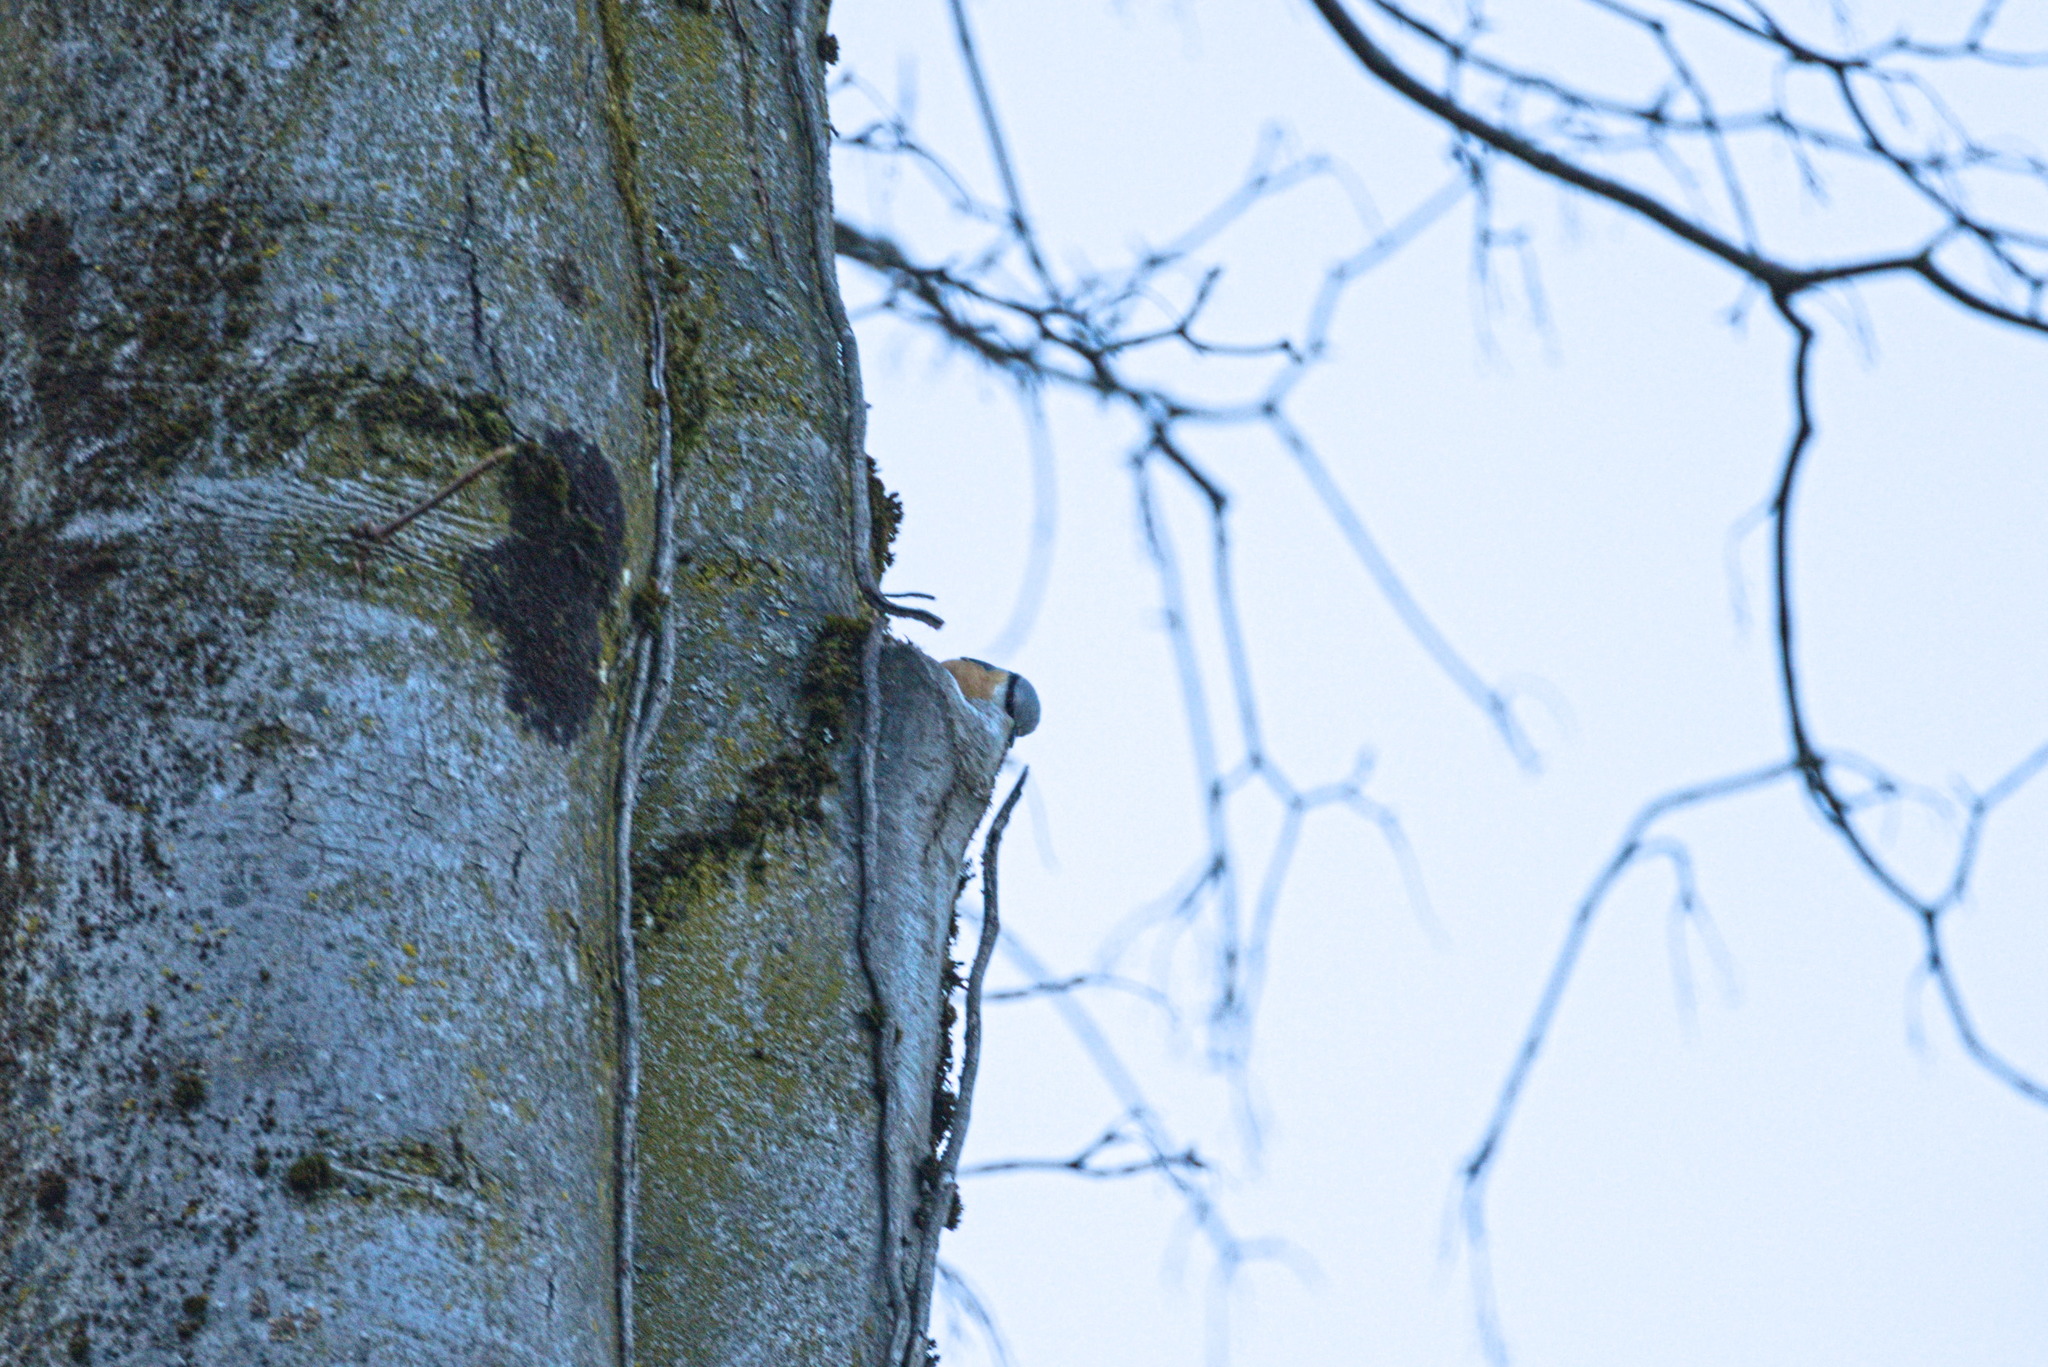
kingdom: Animalia
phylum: Chordata
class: Aves
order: Passeriformes
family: Sittidae
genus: Sitta
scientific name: Sitta europaea
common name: Eurasian nuthatch
